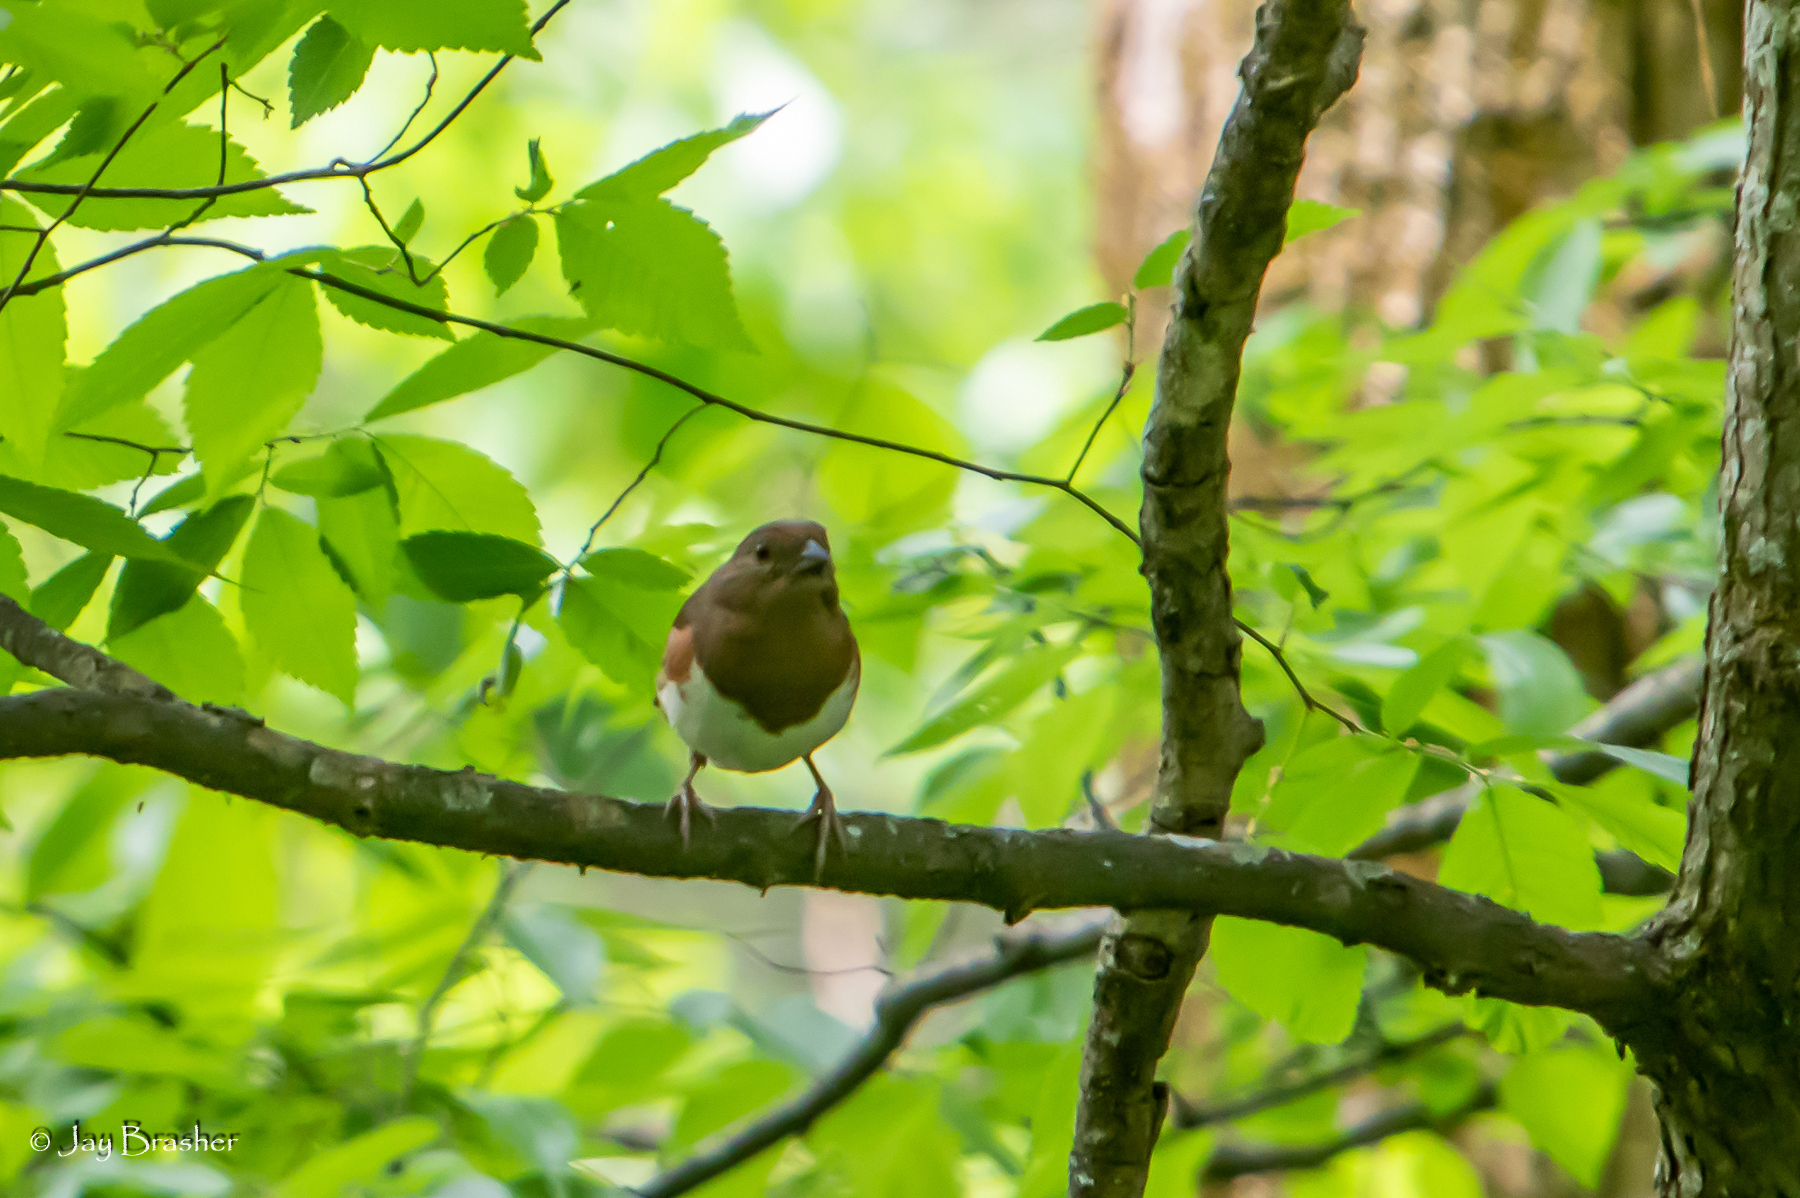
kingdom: Animalia
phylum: Chordata
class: Aves
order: Passeriformes
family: Passerellidae
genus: Pipilo
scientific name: Pipilo erythrophthalmus
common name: Eastern towhee
